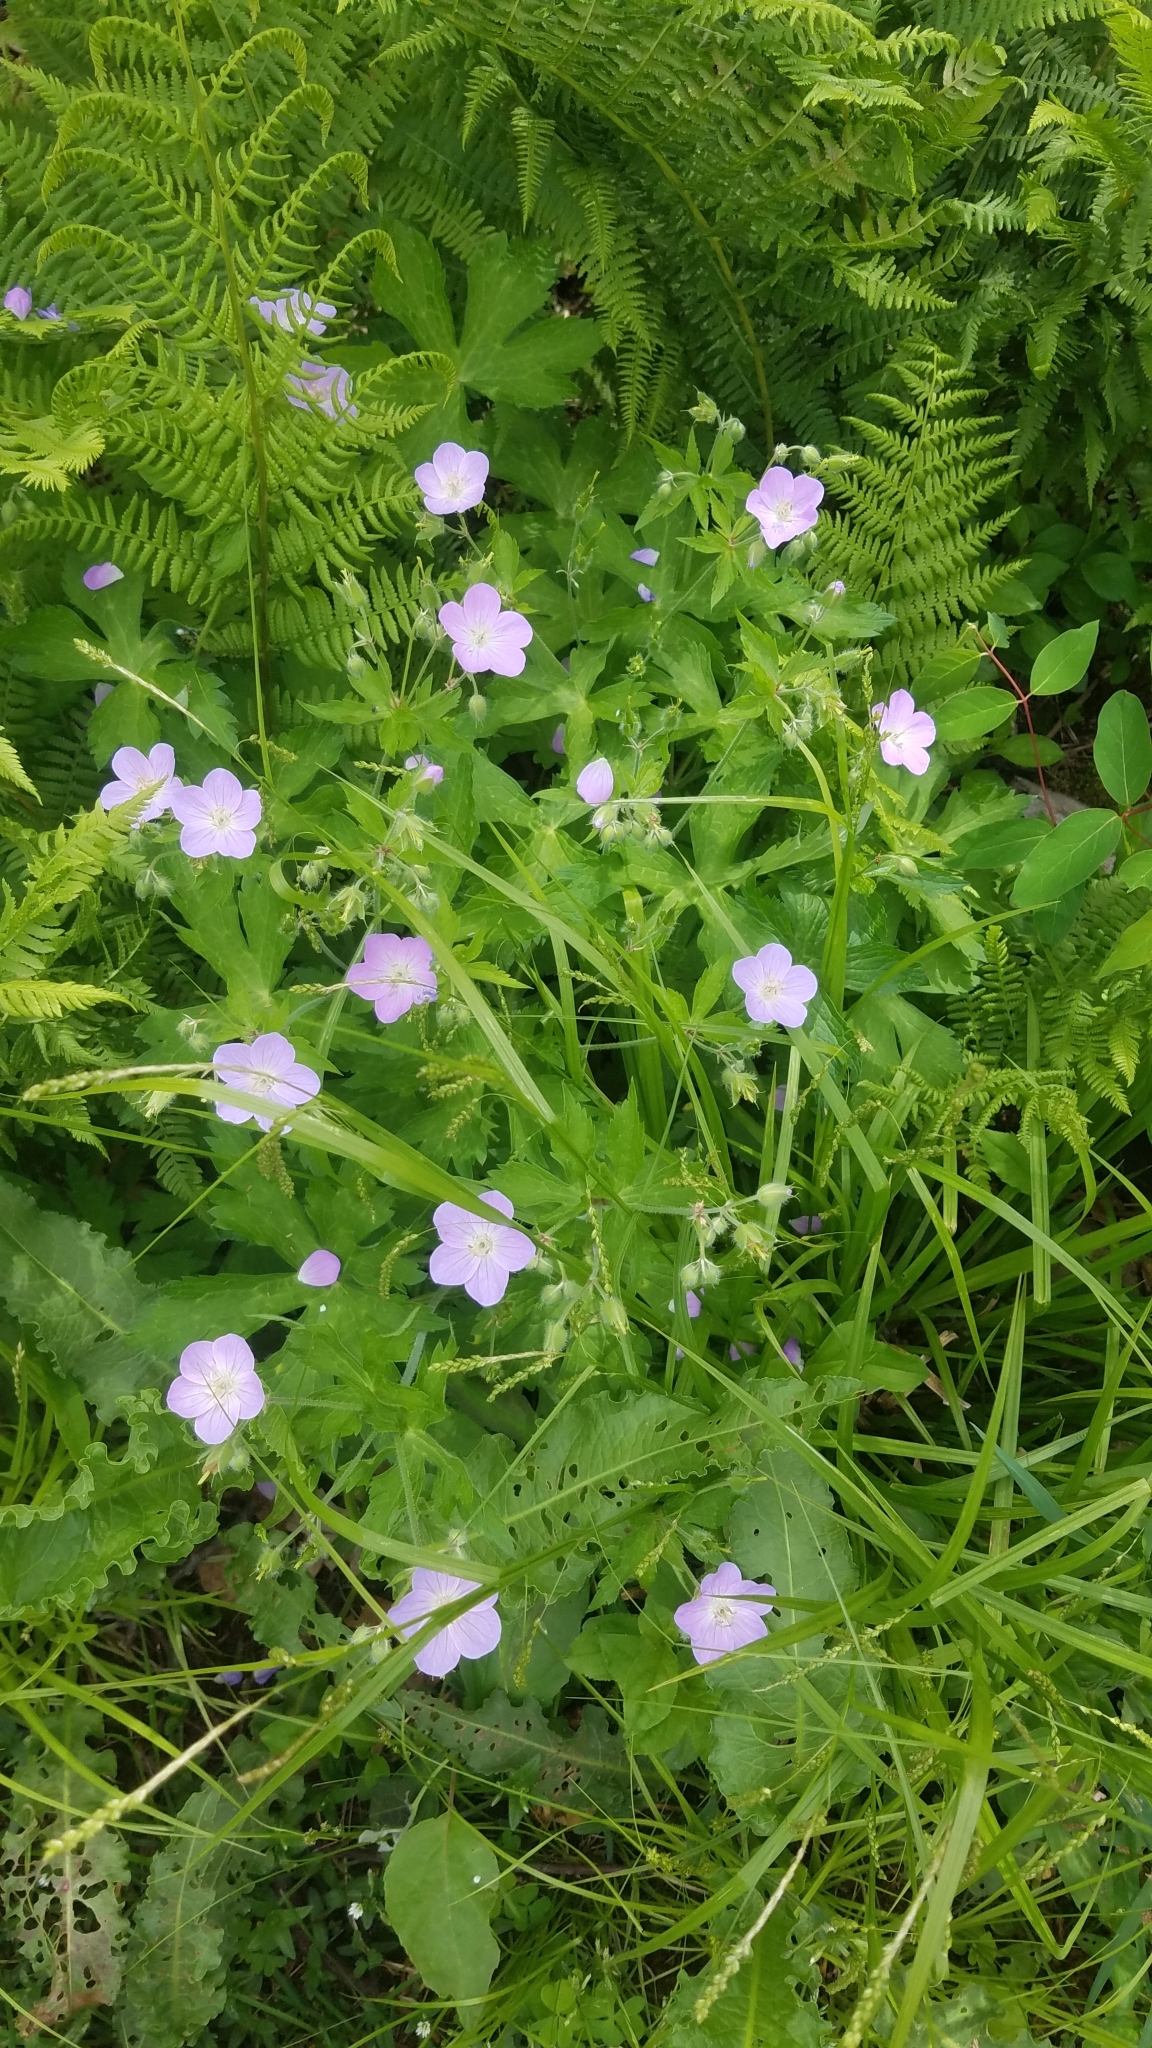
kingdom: Plantae
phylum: Tracheophyta
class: Magnoliopsida
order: Geraniales
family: Geraniaceae
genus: Geranium
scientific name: Geranium maculatum
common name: Spotted geranium
